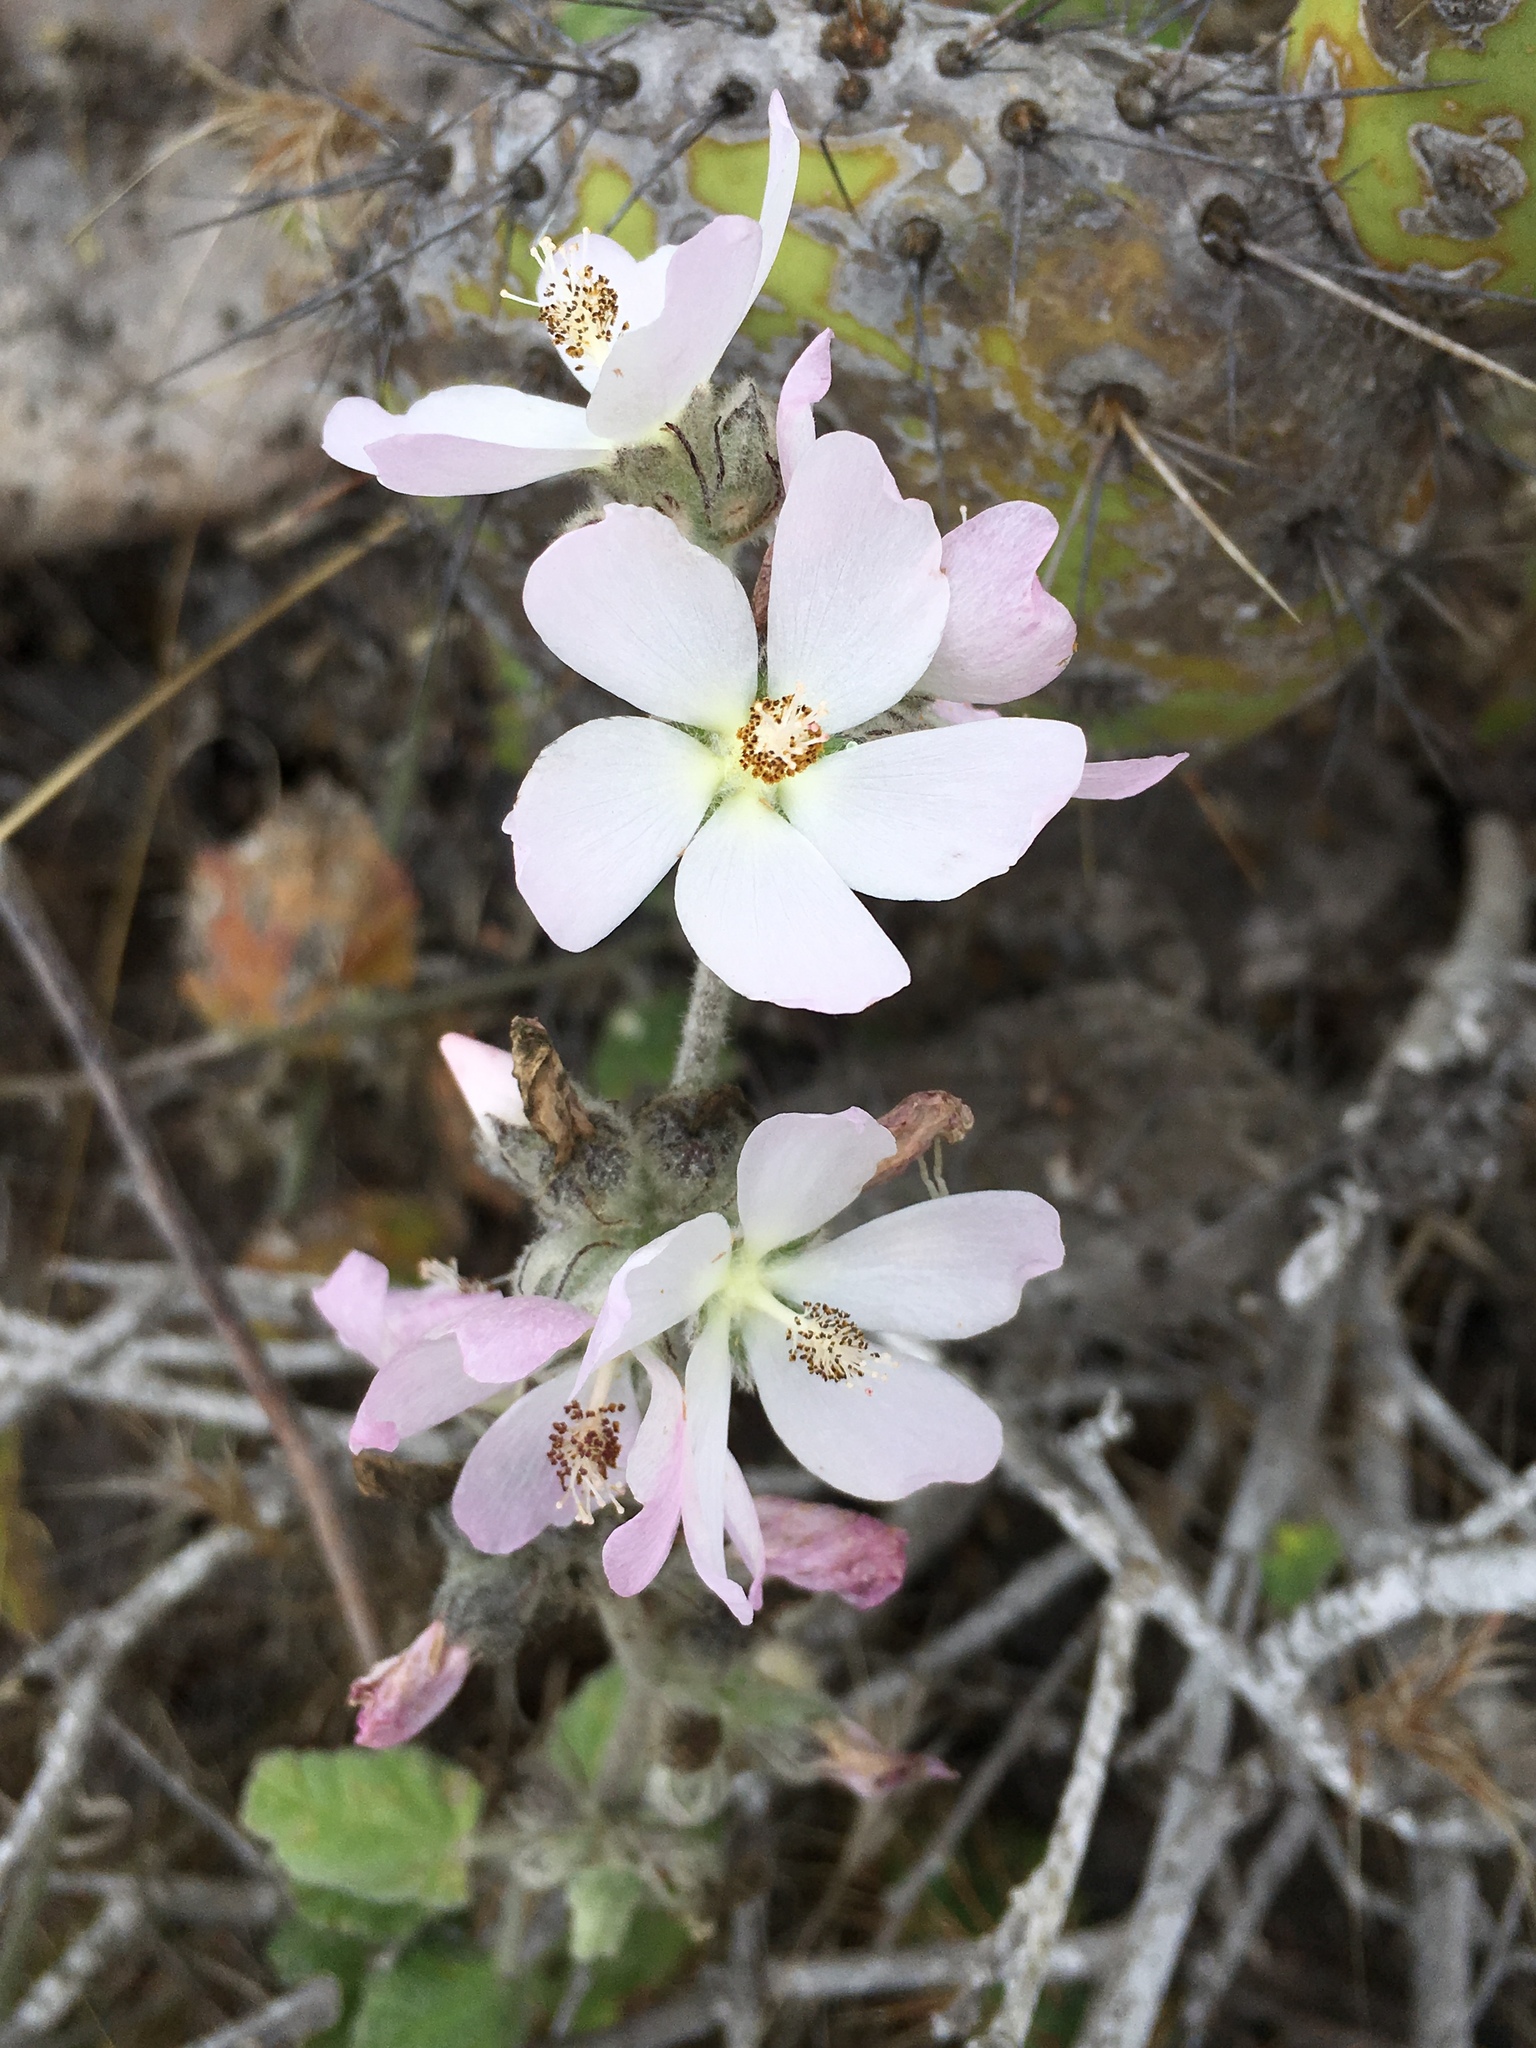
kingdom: Plantae
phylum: Tracheophyta
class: Magnoliopsida
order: Malvales
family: Malvaceae
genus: Malacothamnus
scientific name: Malacothamnus clementinus
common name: San clemente island bush-mallow
